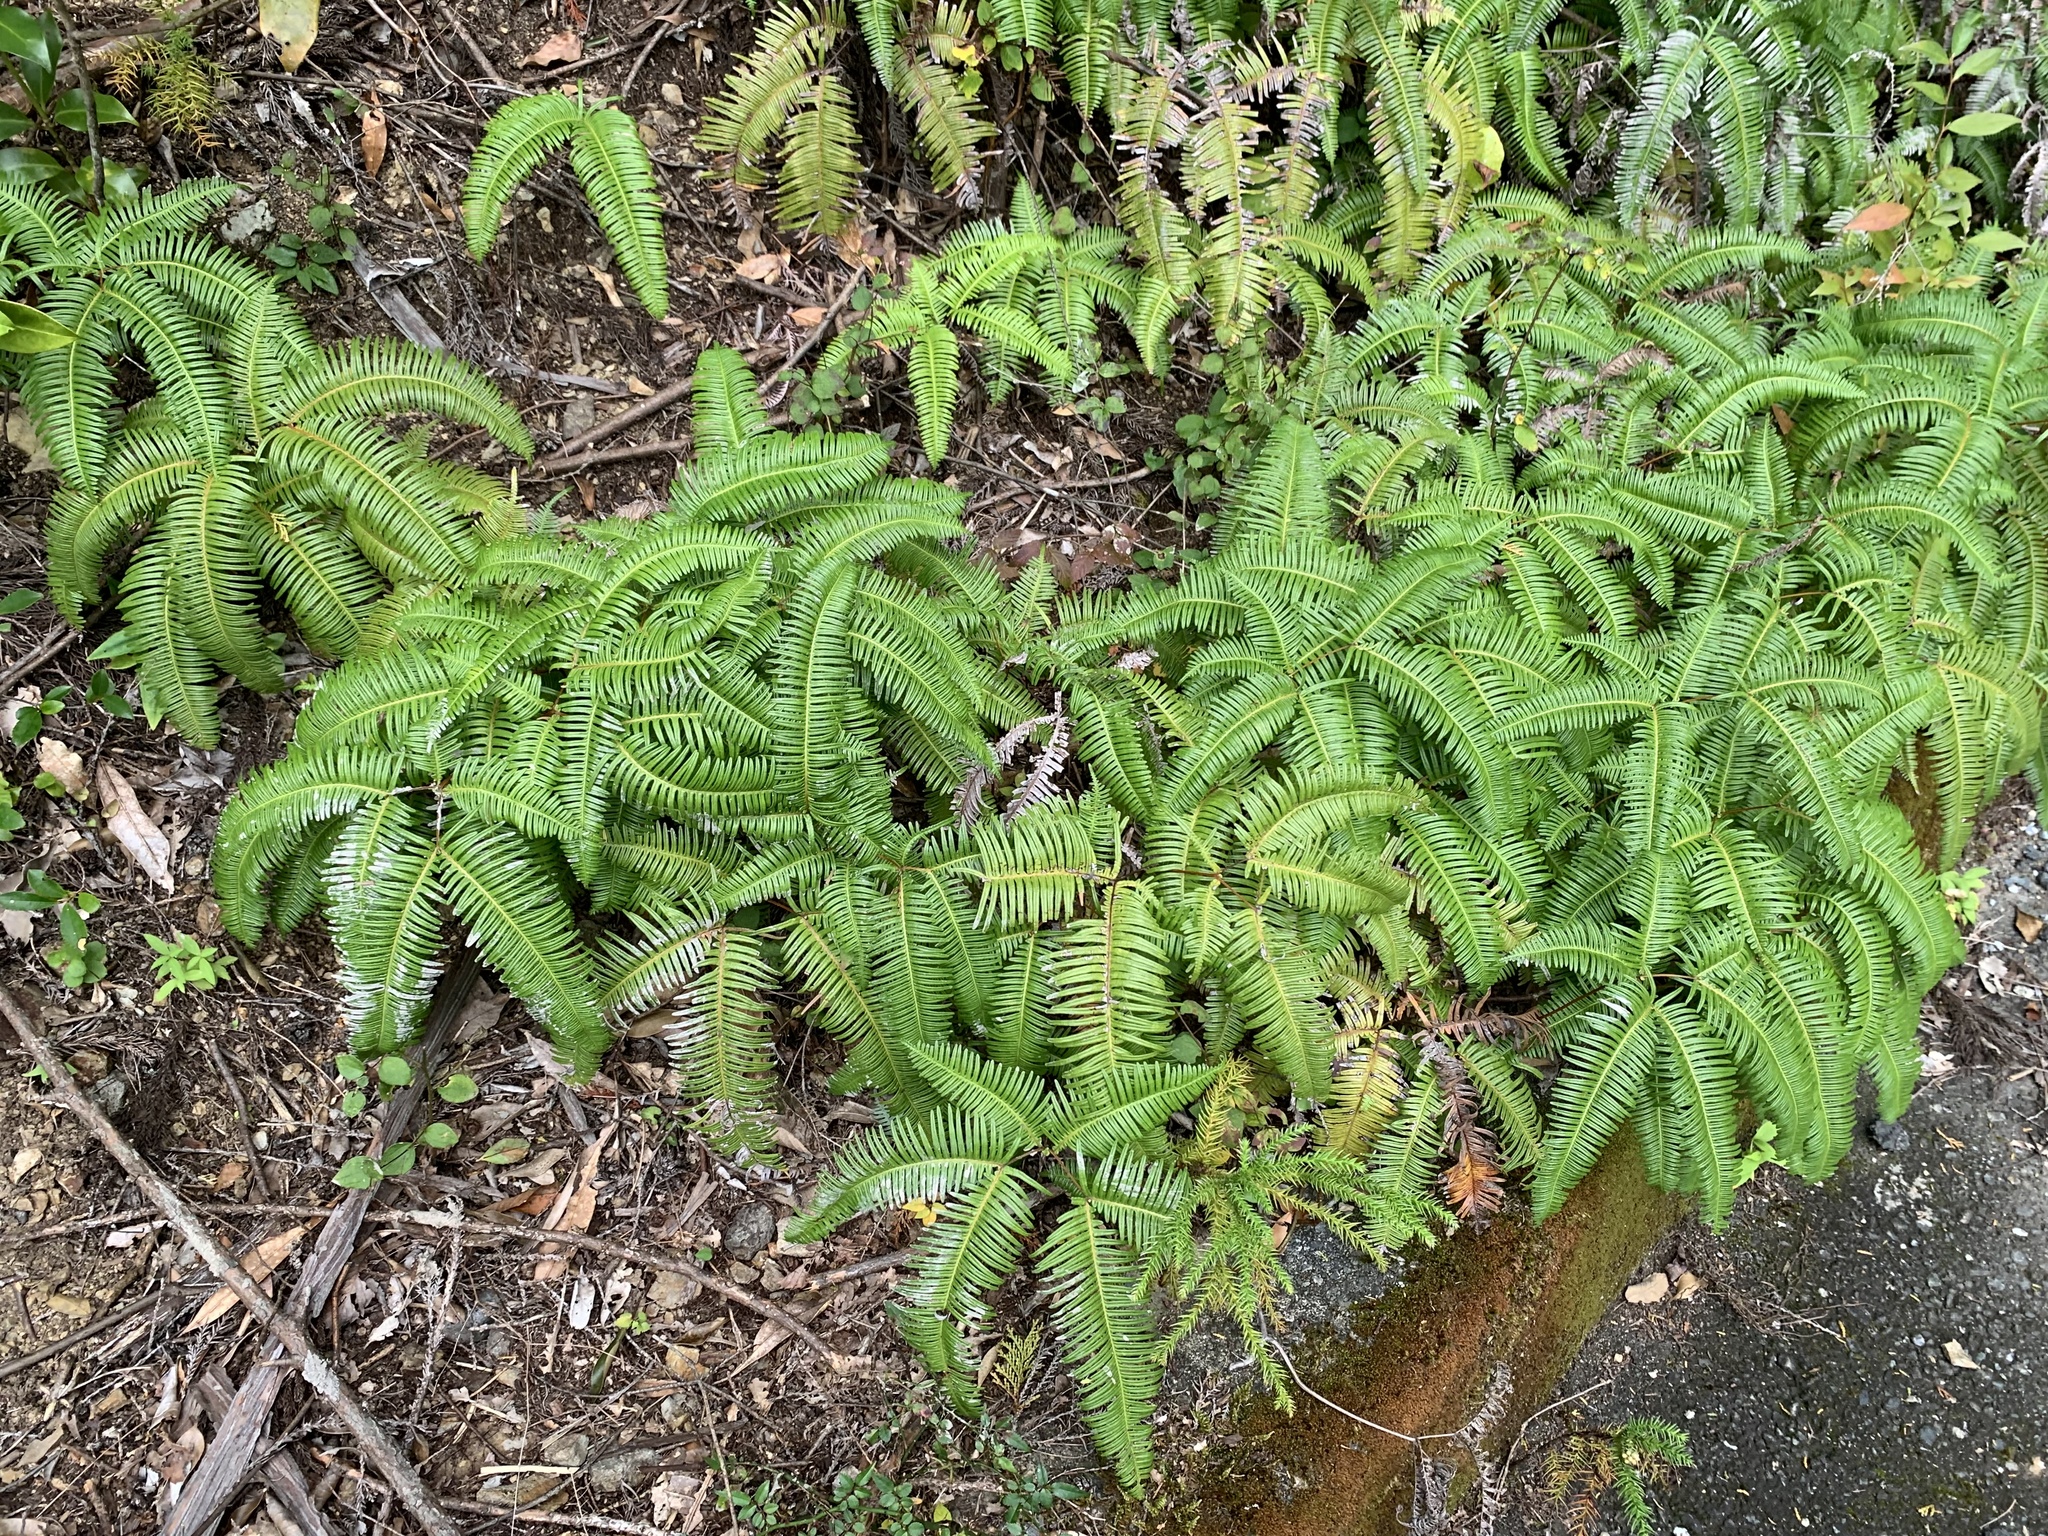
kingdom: Plantae
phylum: Tracheophyta
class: Polypodiopsida
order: Gleicheniales
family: Gleicheniaceae
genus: Dicranopteris
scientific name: Dicranopteris linearis
